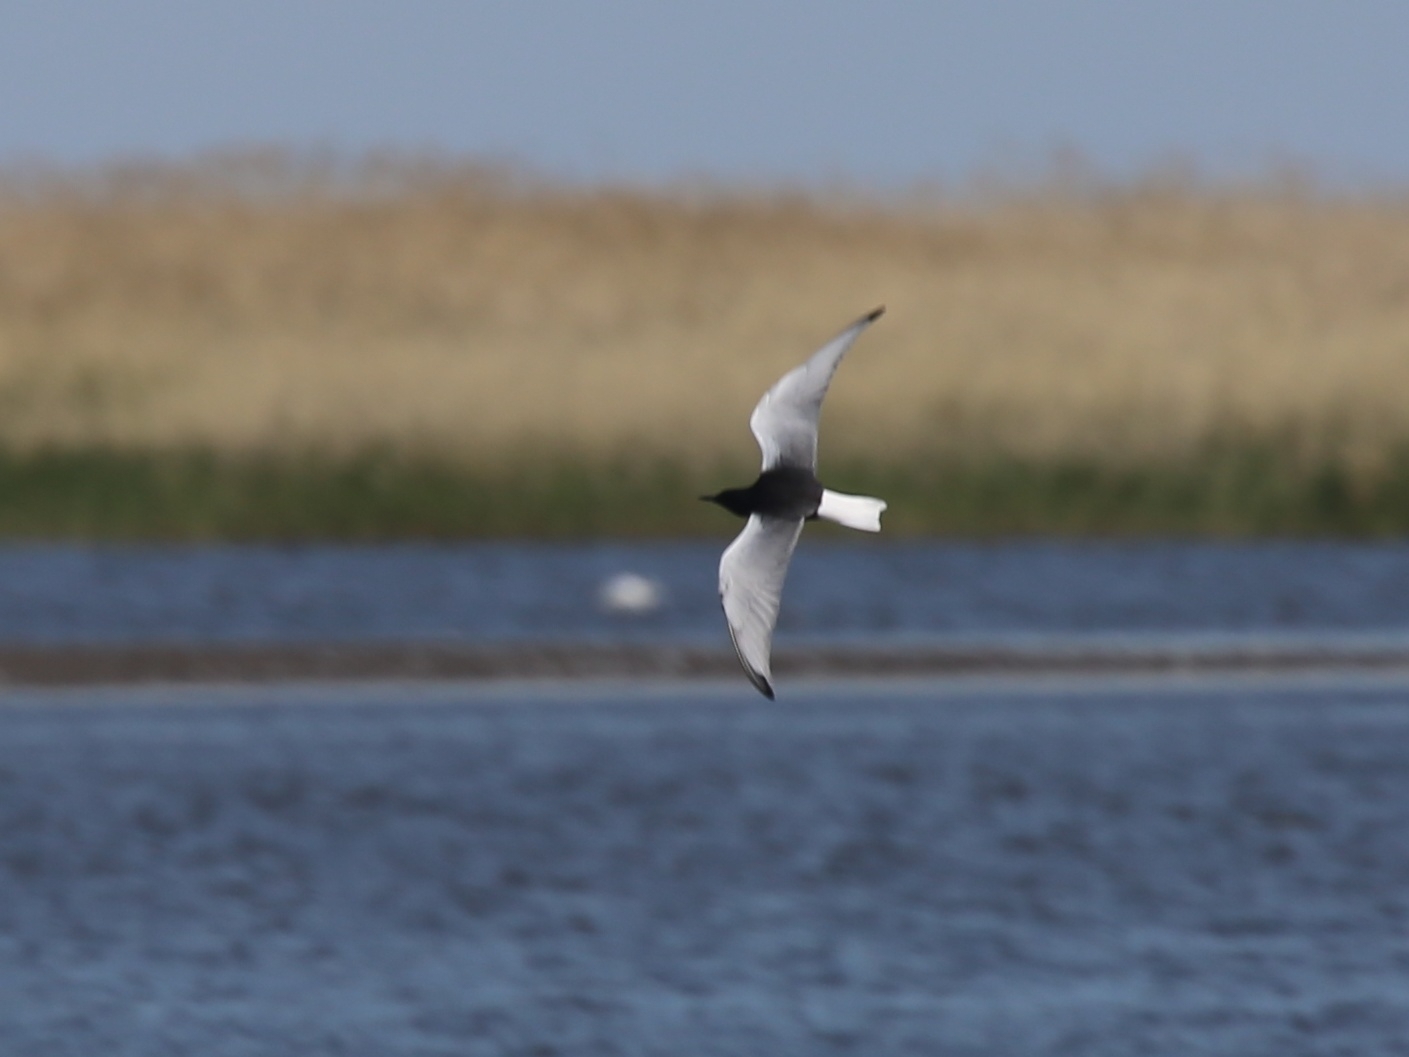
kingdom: Animalia
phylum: Chordata
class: Aves
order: Charadriiformes
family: Laridae
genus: Chlidonias
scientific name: Chlidonias leucopterus
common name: White-winged tern
